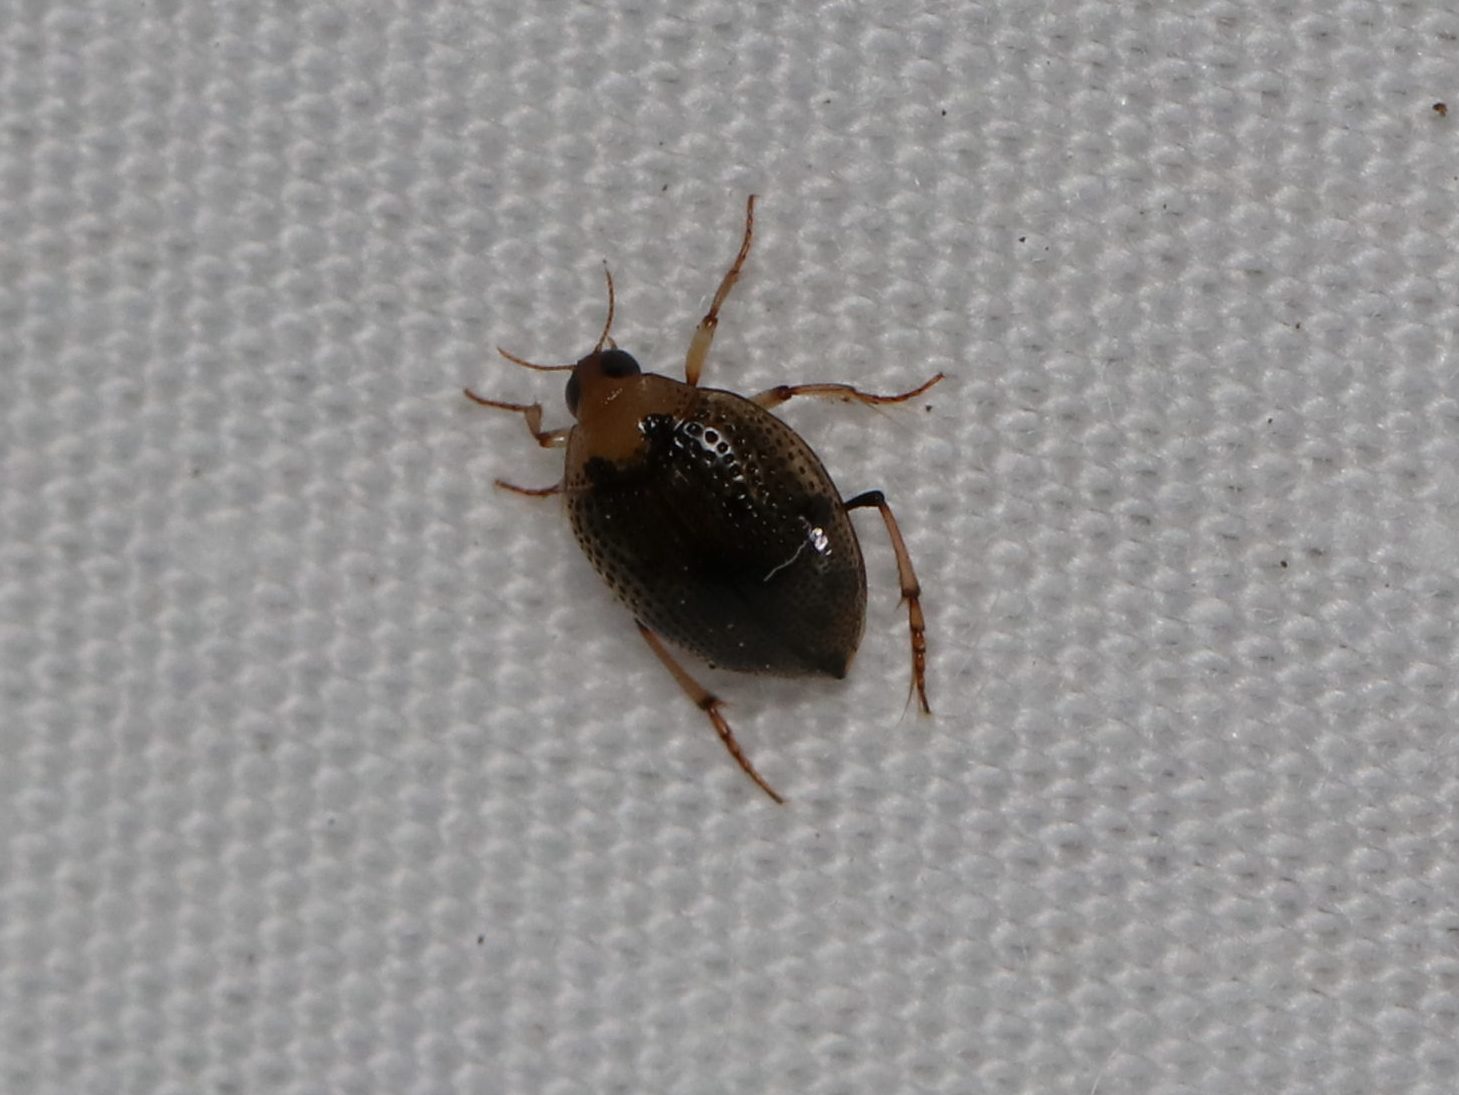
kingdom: Animalia
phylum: Arthropoda
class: Insecta
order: Coleoptera
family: Haliplidae
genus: Peltodytes
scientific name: Peltodytes
